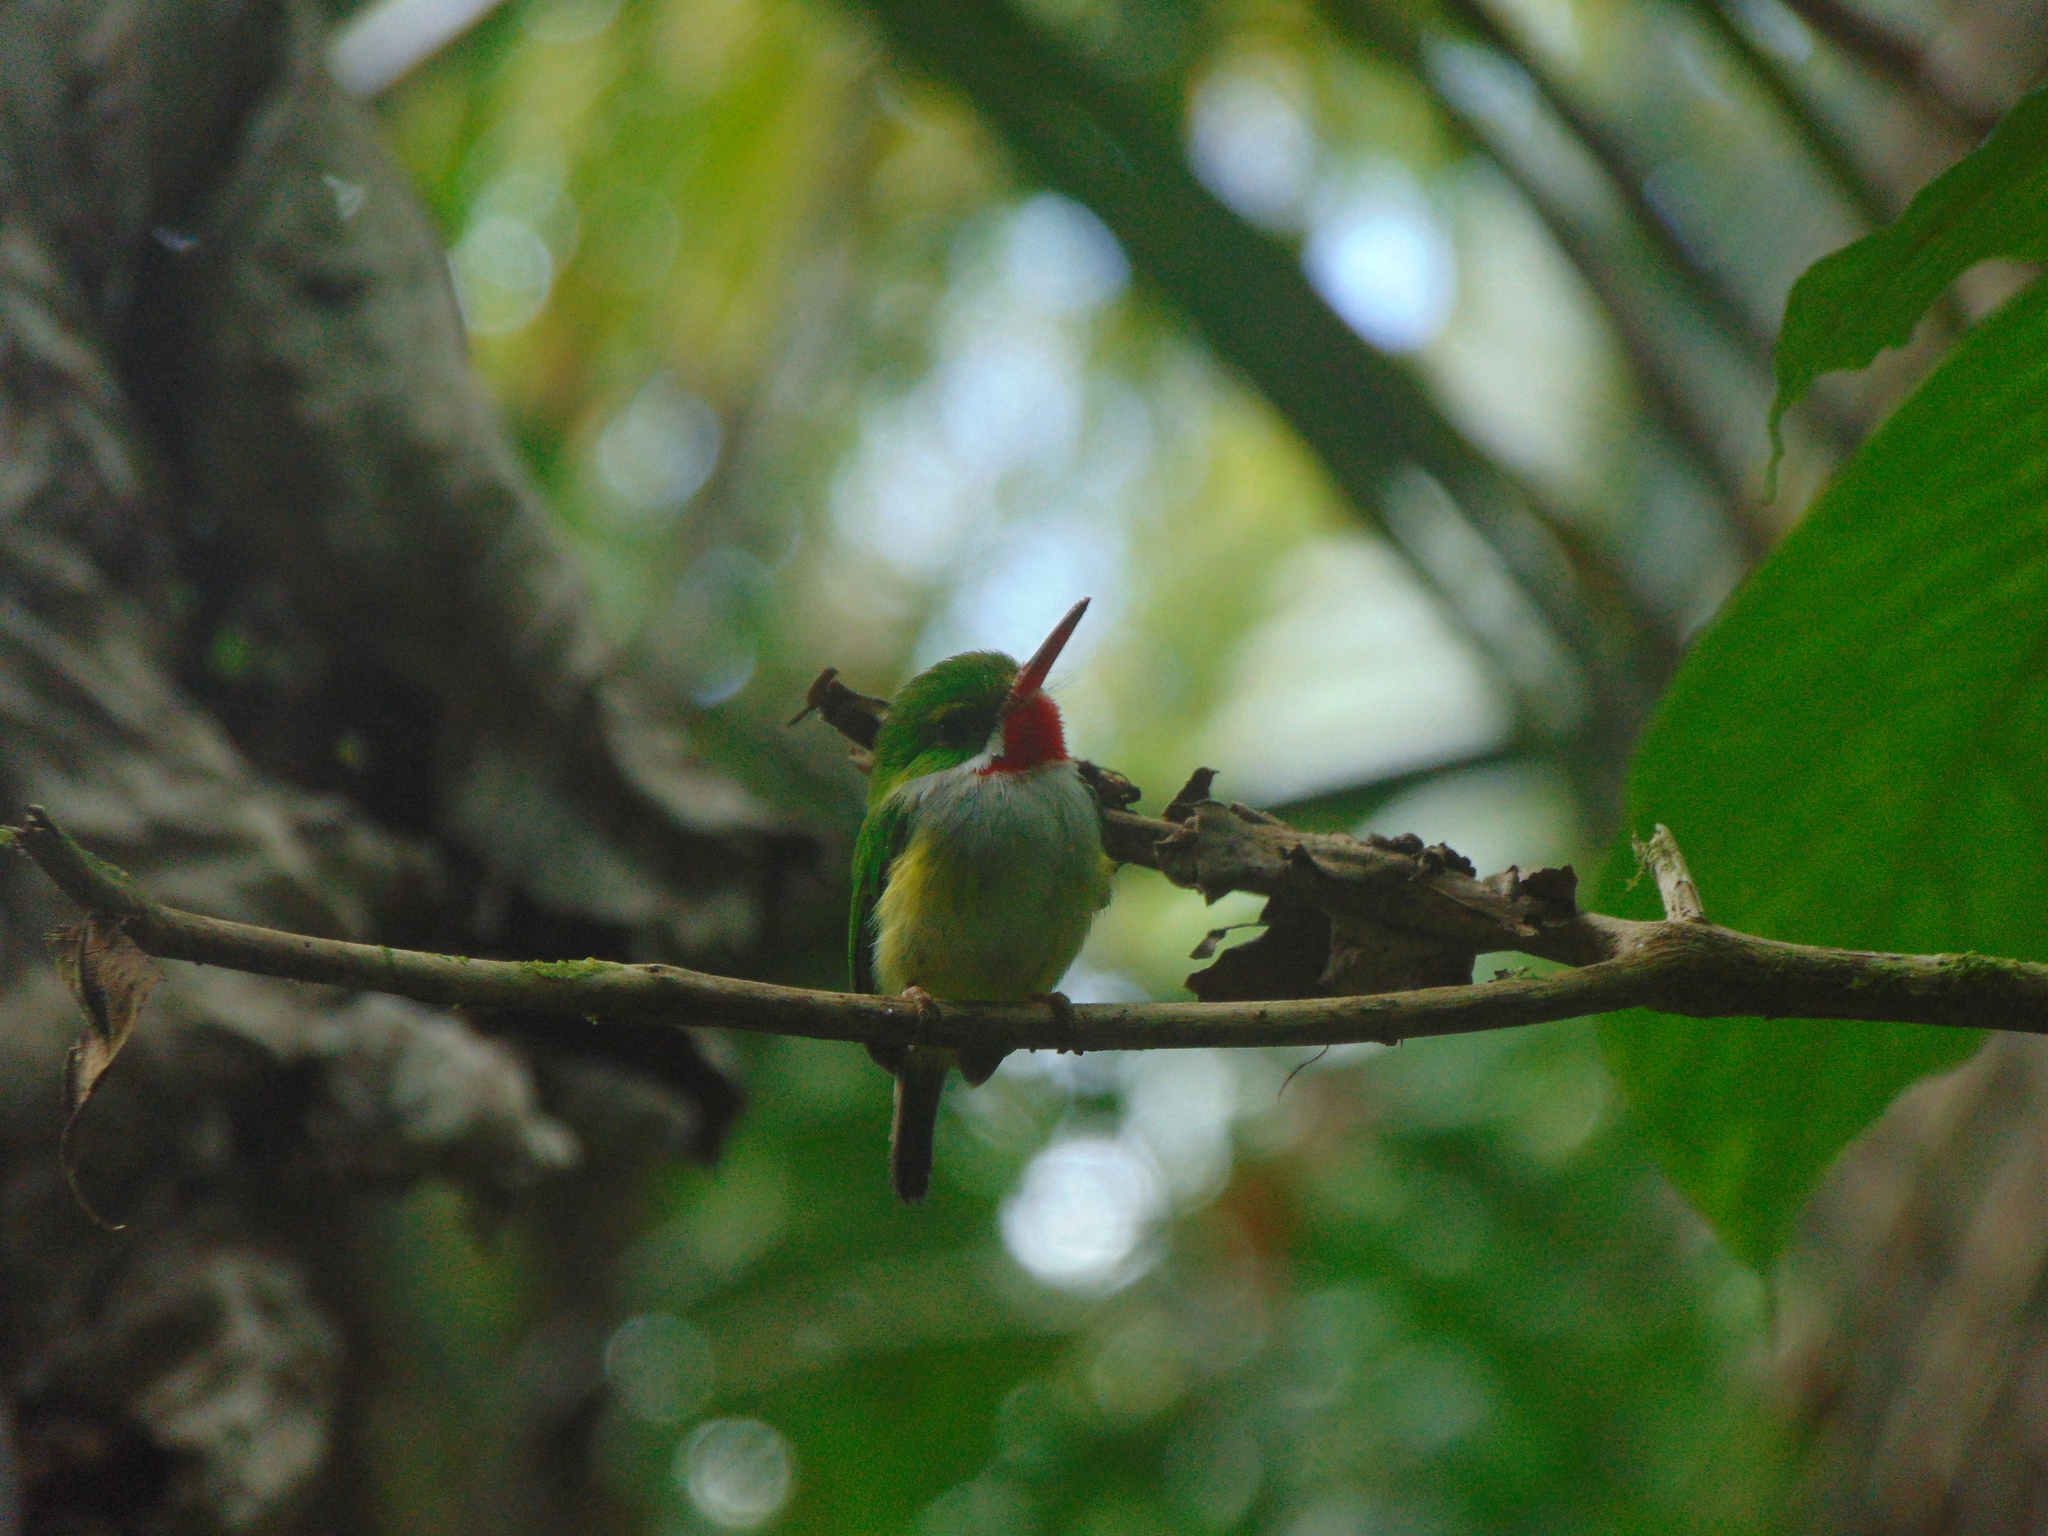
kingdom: Animalia
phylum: Chordata
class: Aves
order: Coraciiformes
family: Todidae
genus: Todus
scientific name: Todus mexicanus
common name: Puerto rican tody
